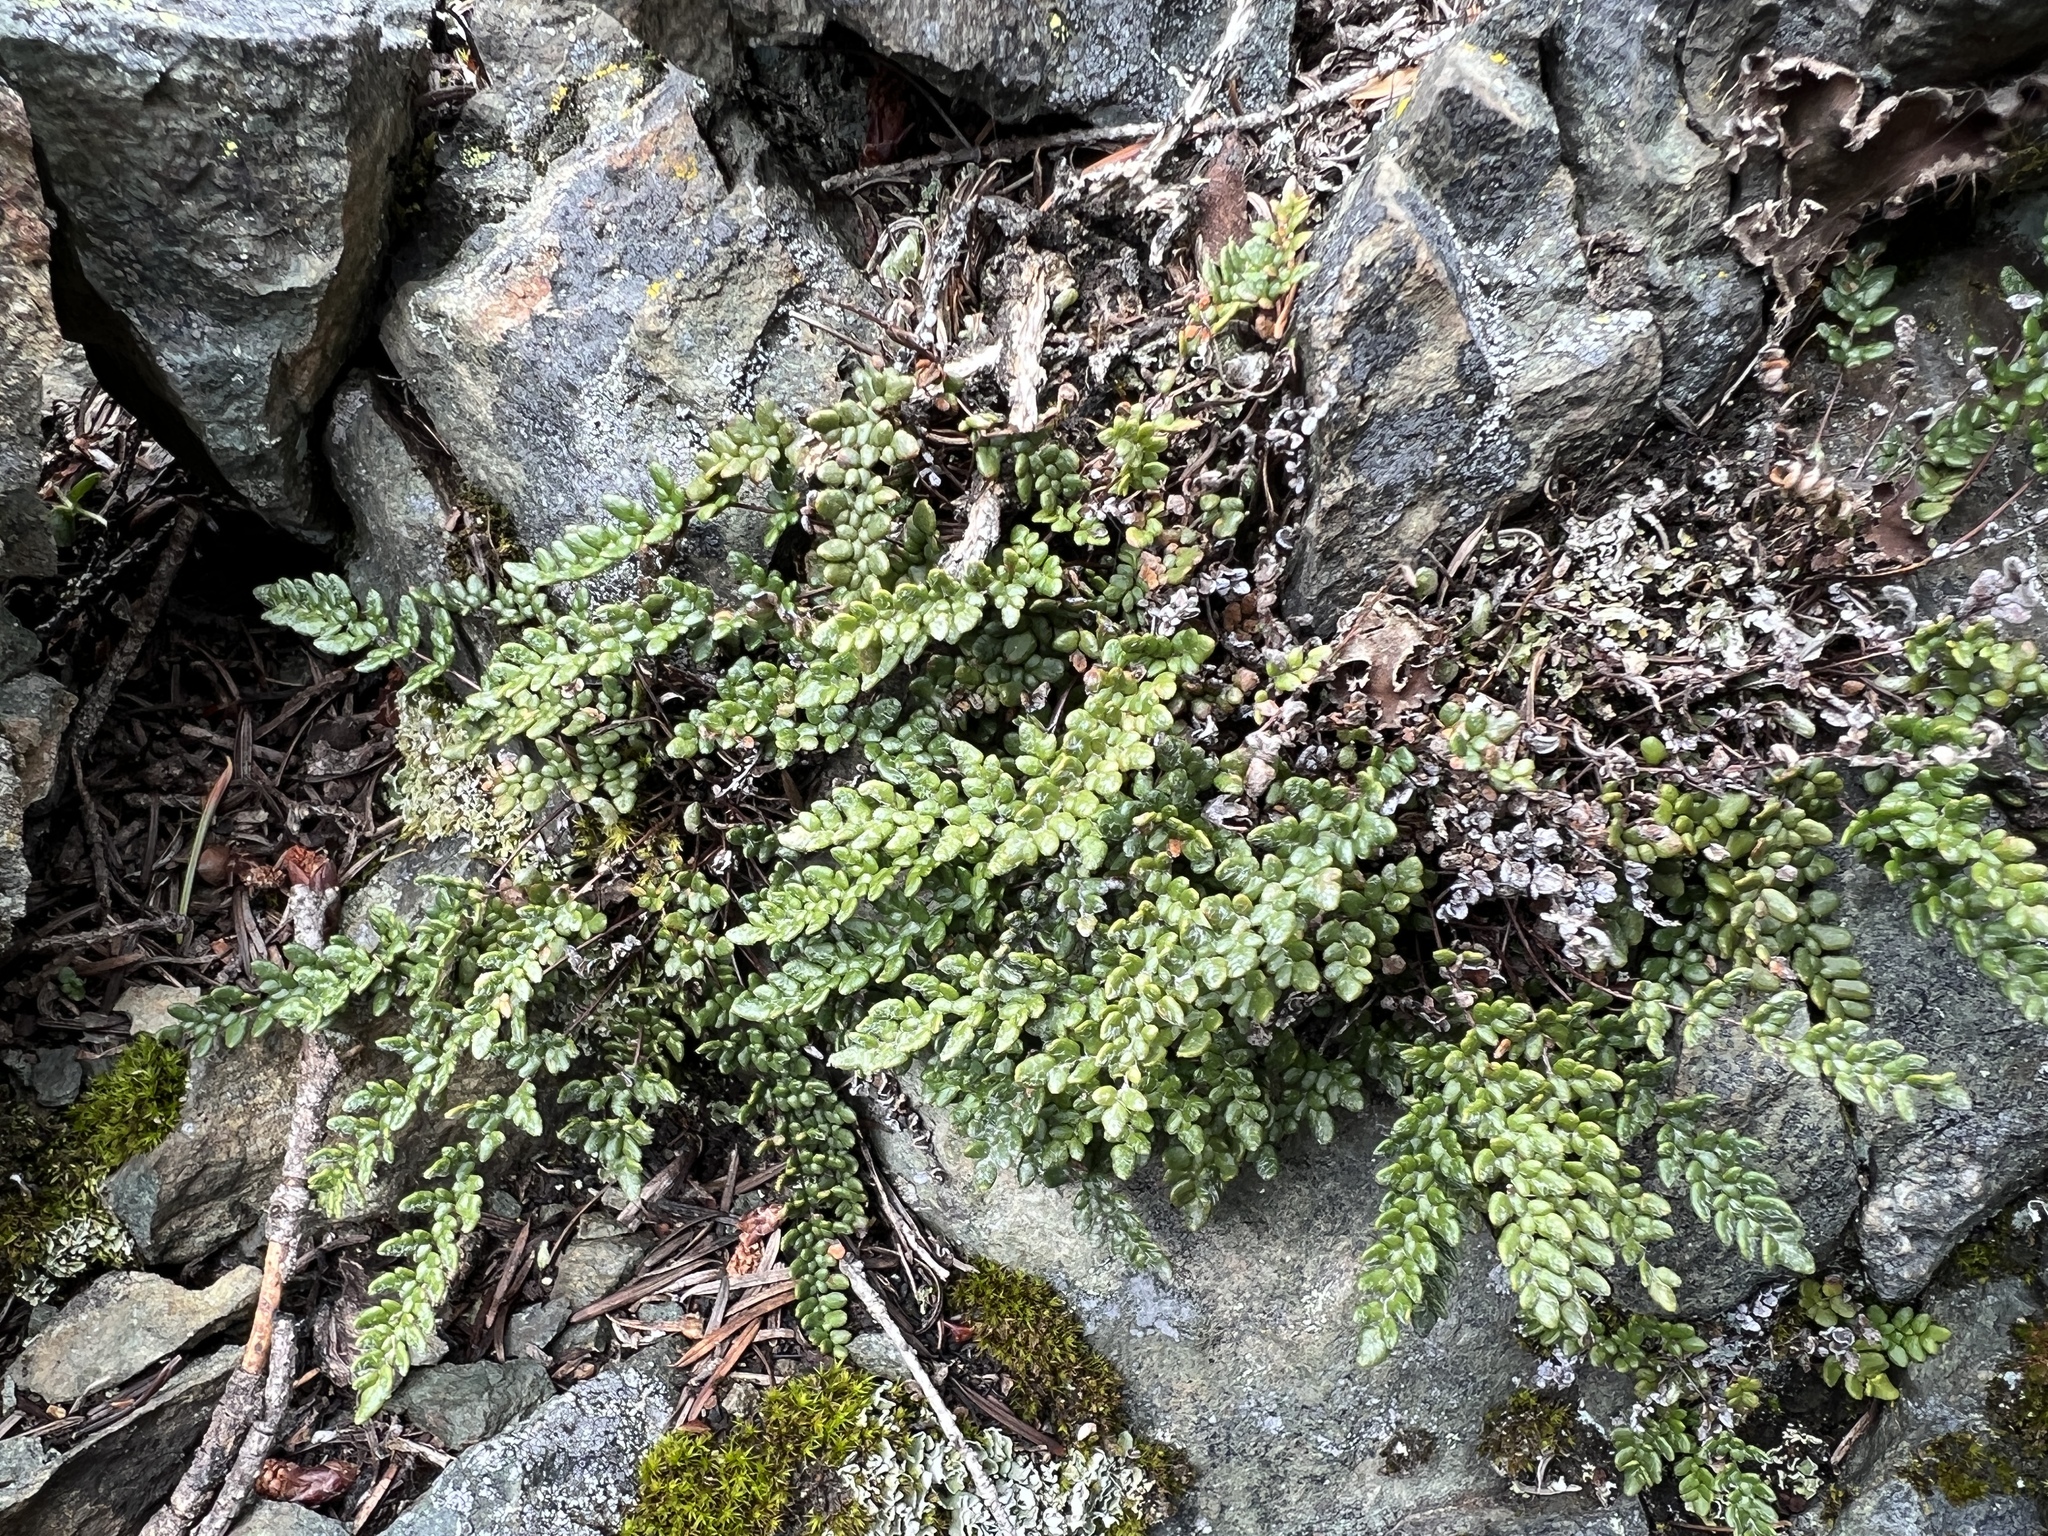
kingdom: Plantae
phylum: Tracheophyta
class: Polypodiopsida
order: Polypodiales
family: Pteridaceae
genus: Myriopteris
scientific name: Myriopteris gracillima
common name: Lace fern
